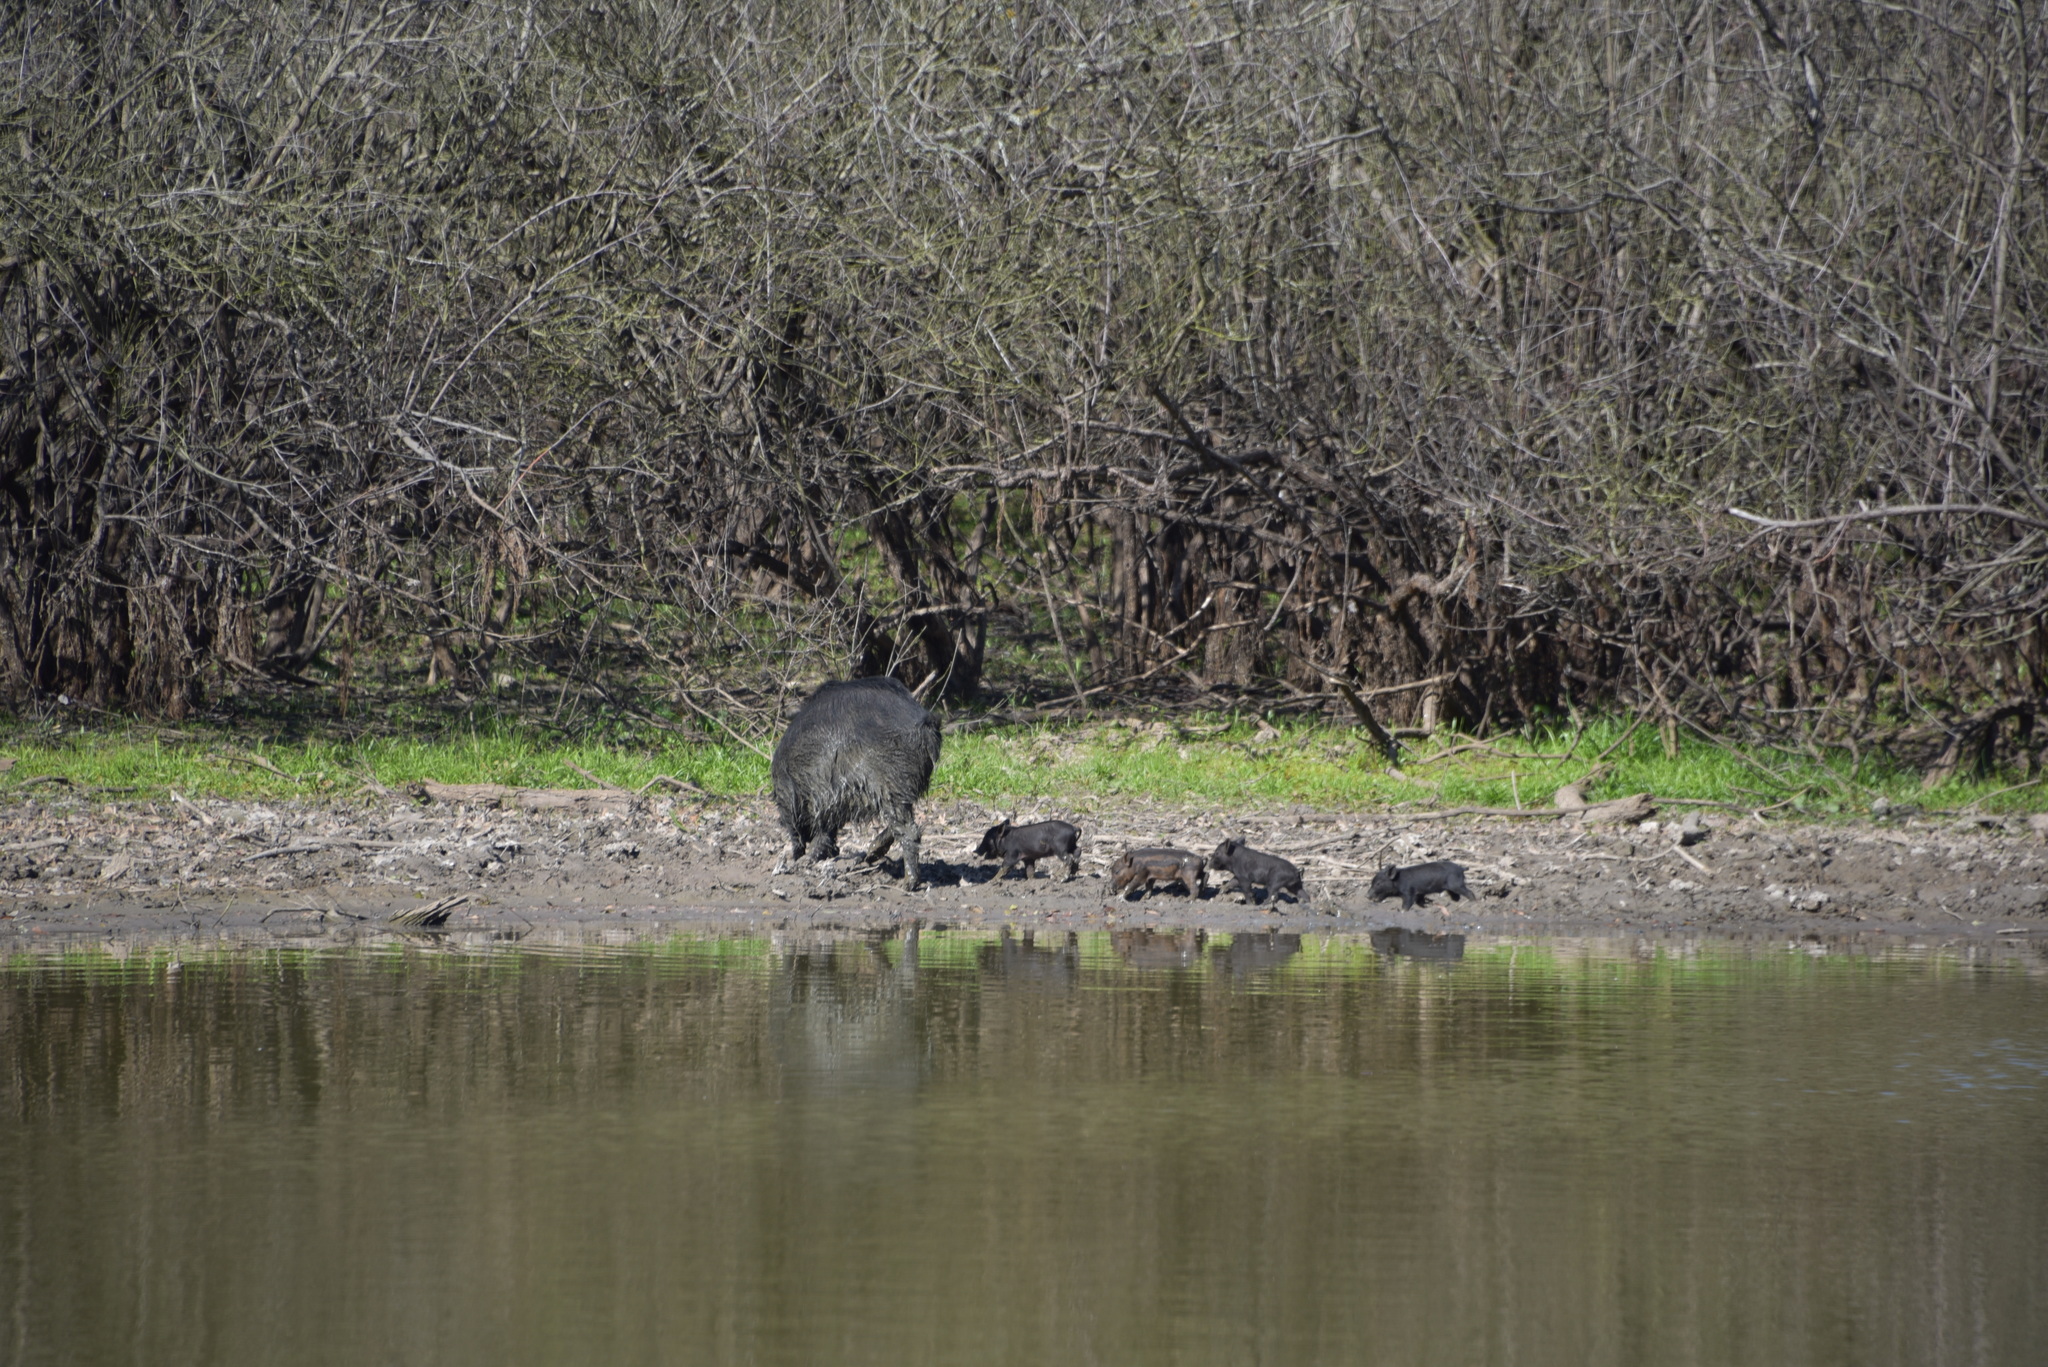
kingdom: Animalia
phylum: Chordata
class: Mammalia
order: Artiodactyla
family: Suidae
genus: Sus
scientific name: Sus scrofa
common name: Wild boar
